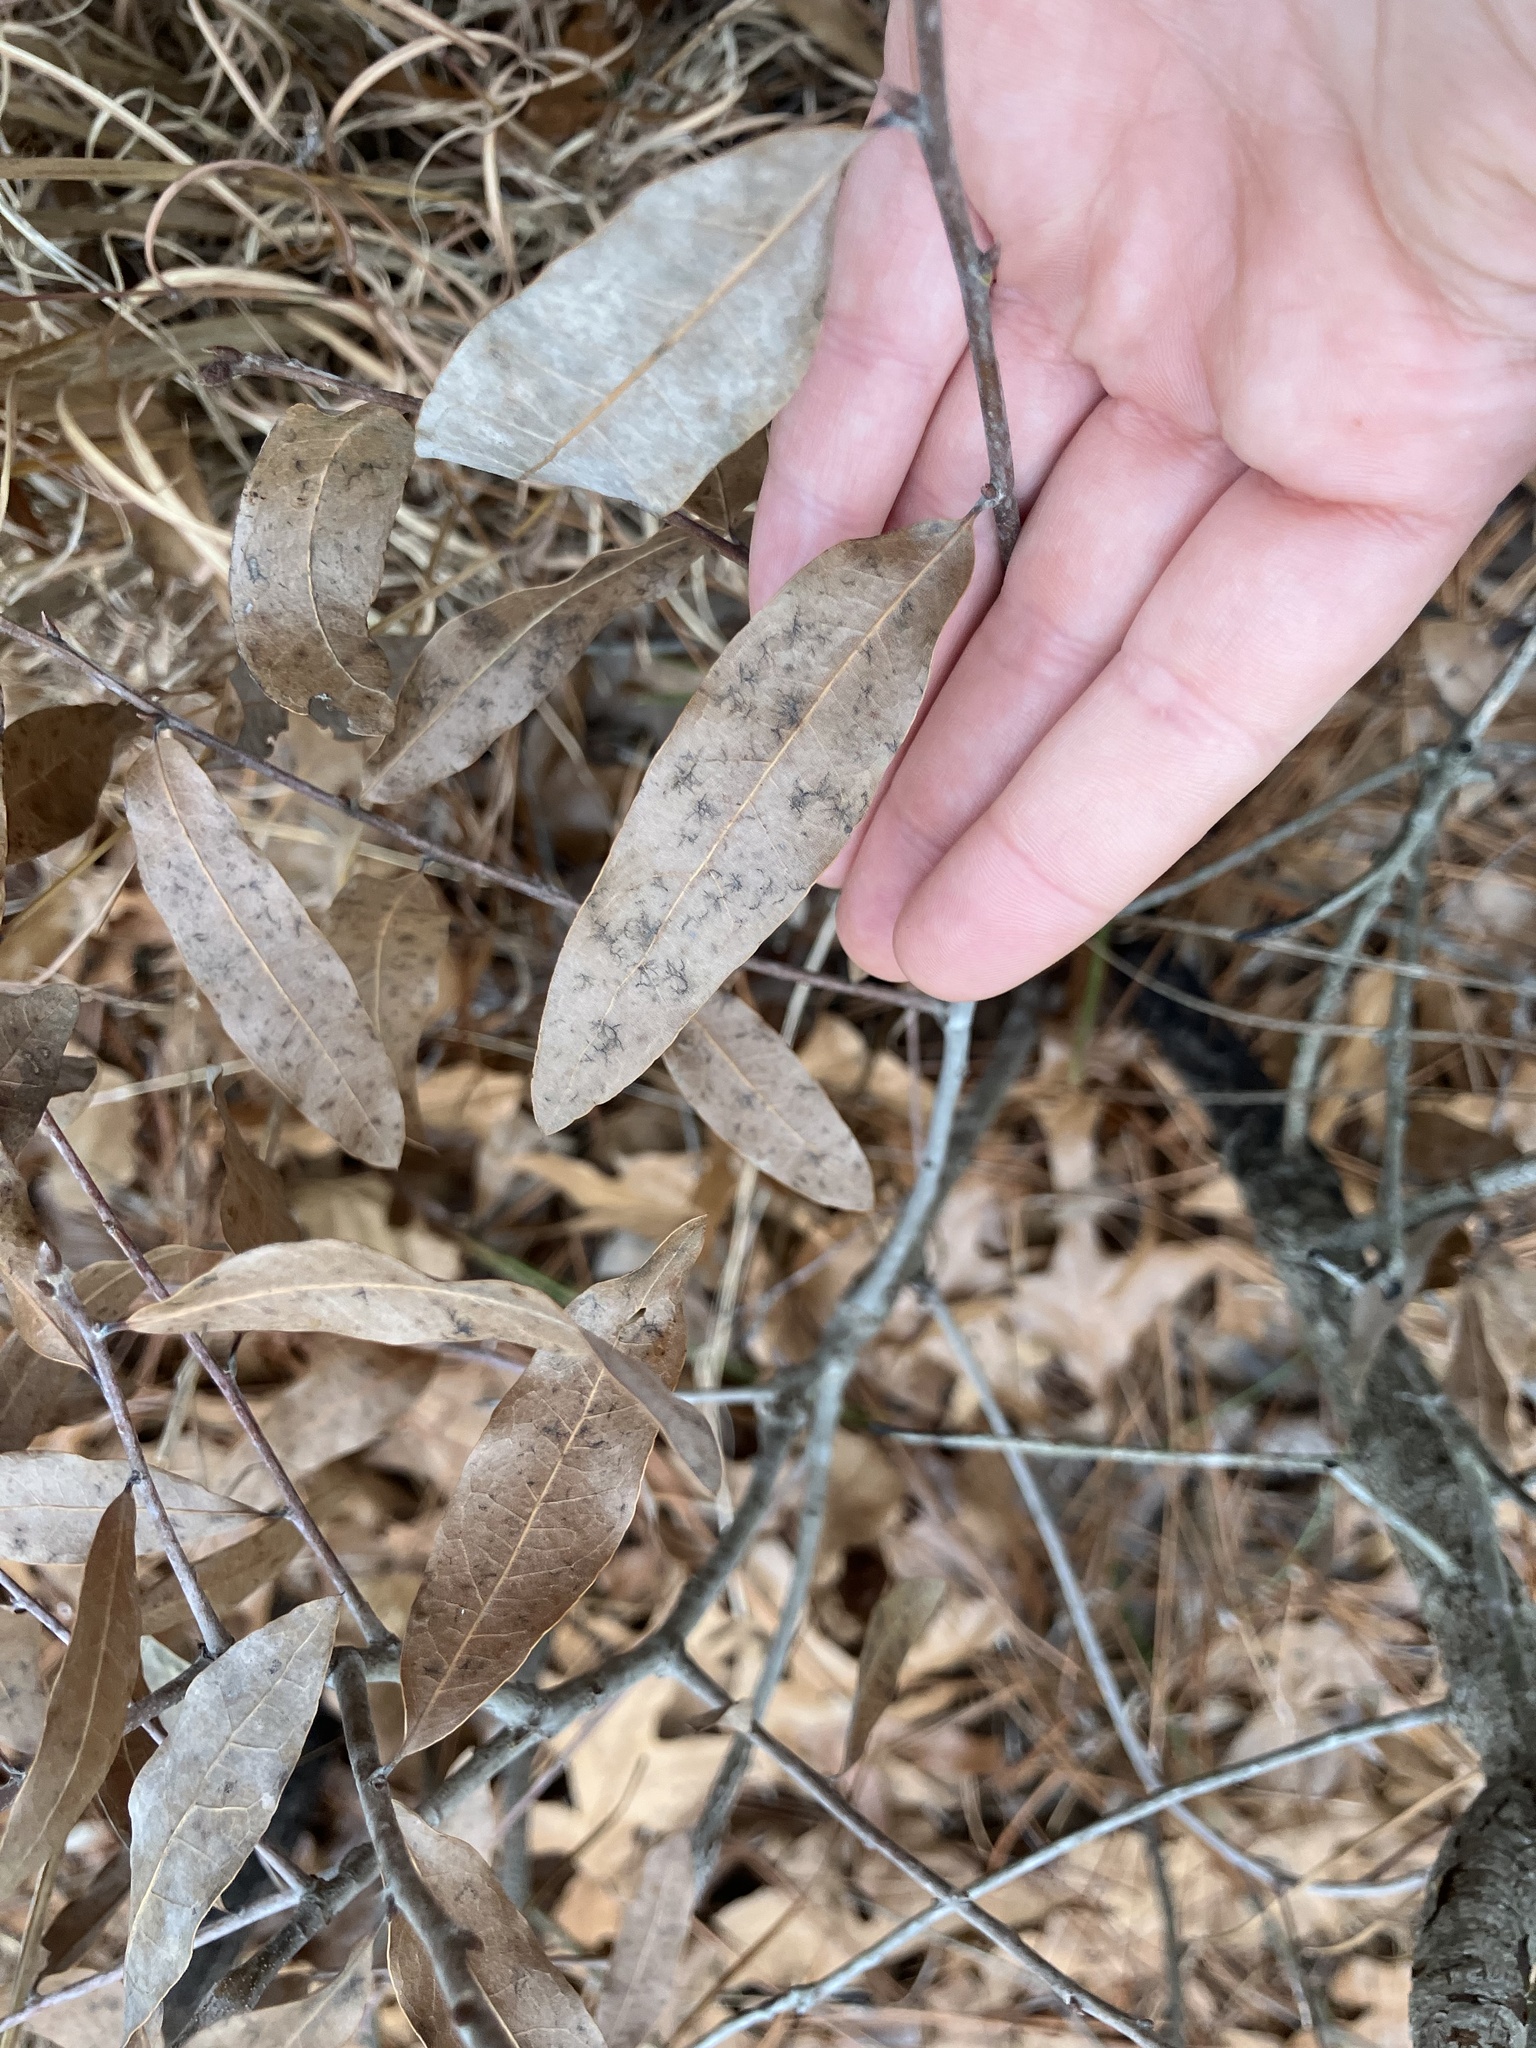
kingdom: Plantae
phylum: Tracheophyta
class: Magnoliopsida
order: Fagales
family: Fagaceae
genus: Quercus
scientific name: Quercus phellos
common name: Willow oak
